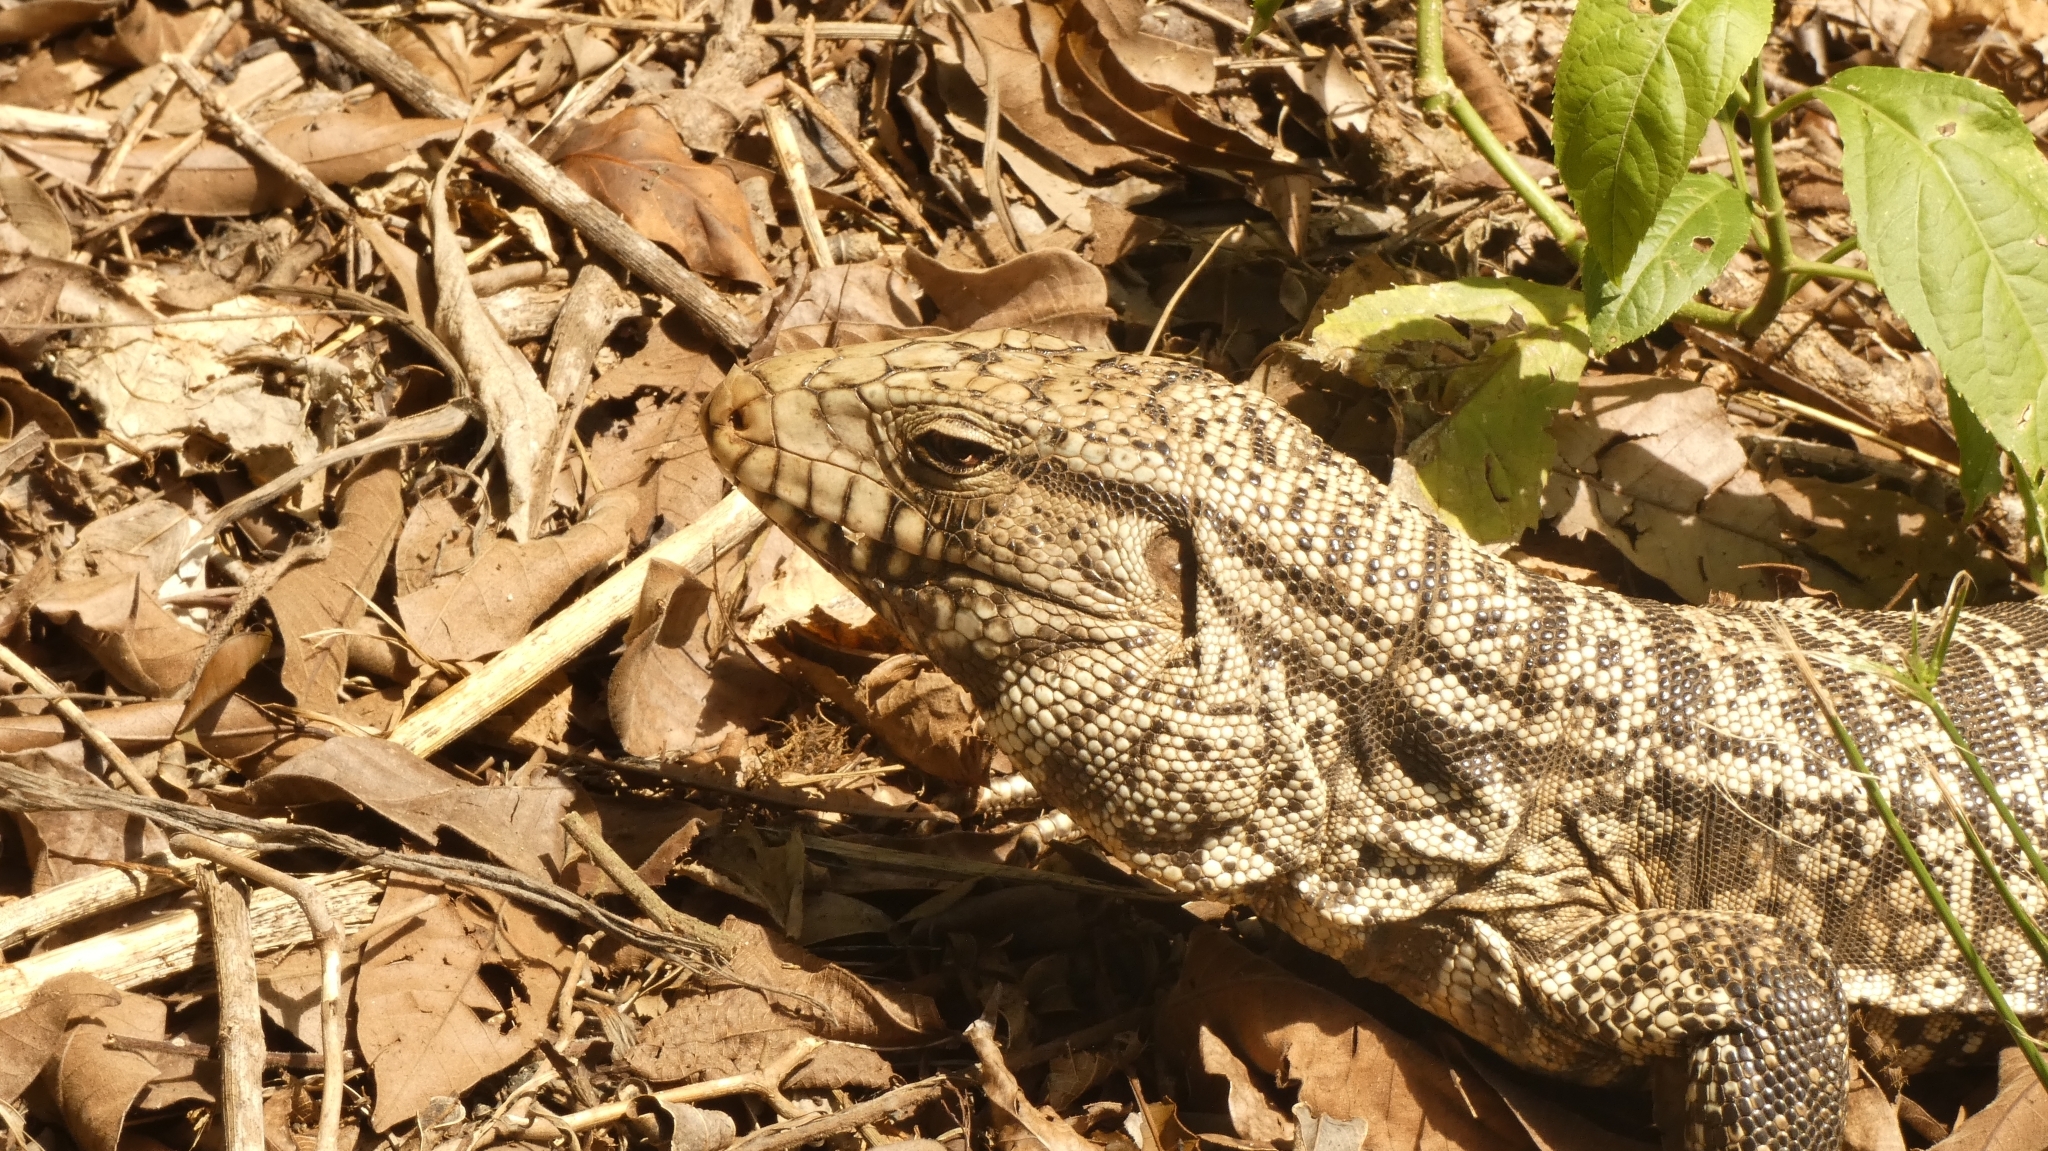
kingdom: Animalia
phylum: Chordata
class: Squamata
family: Teiidae
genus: Salvator
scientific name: Salvator merianae
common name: Argentine black and white tegu
